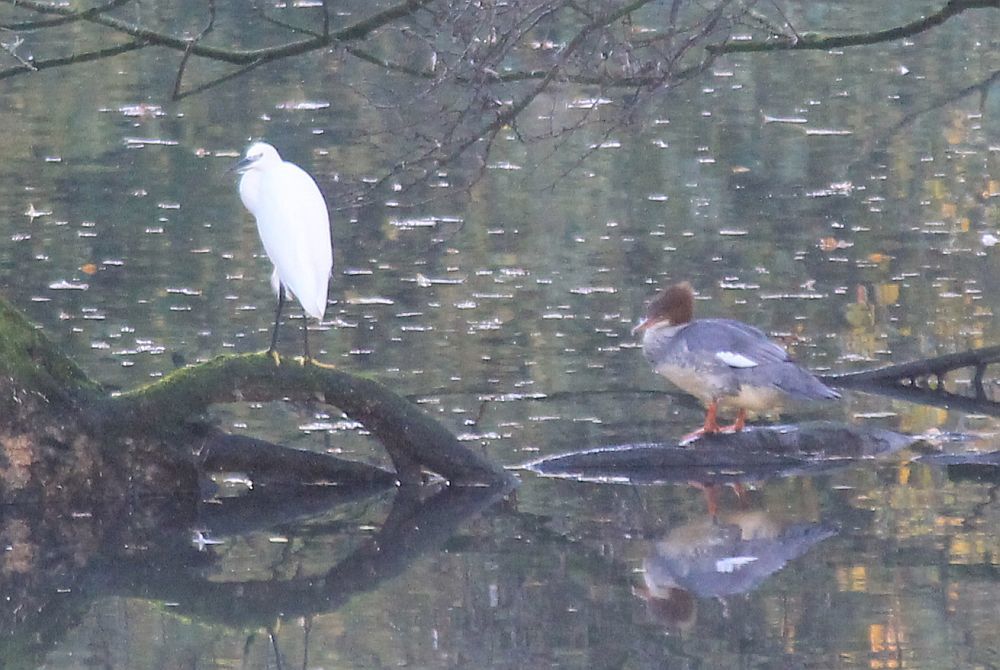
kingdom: Animalia
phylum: Chordata
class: Aves
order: Anseriformes
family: Anatidae
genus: Mergus
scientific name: Mergus merganser
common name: Common merganser
